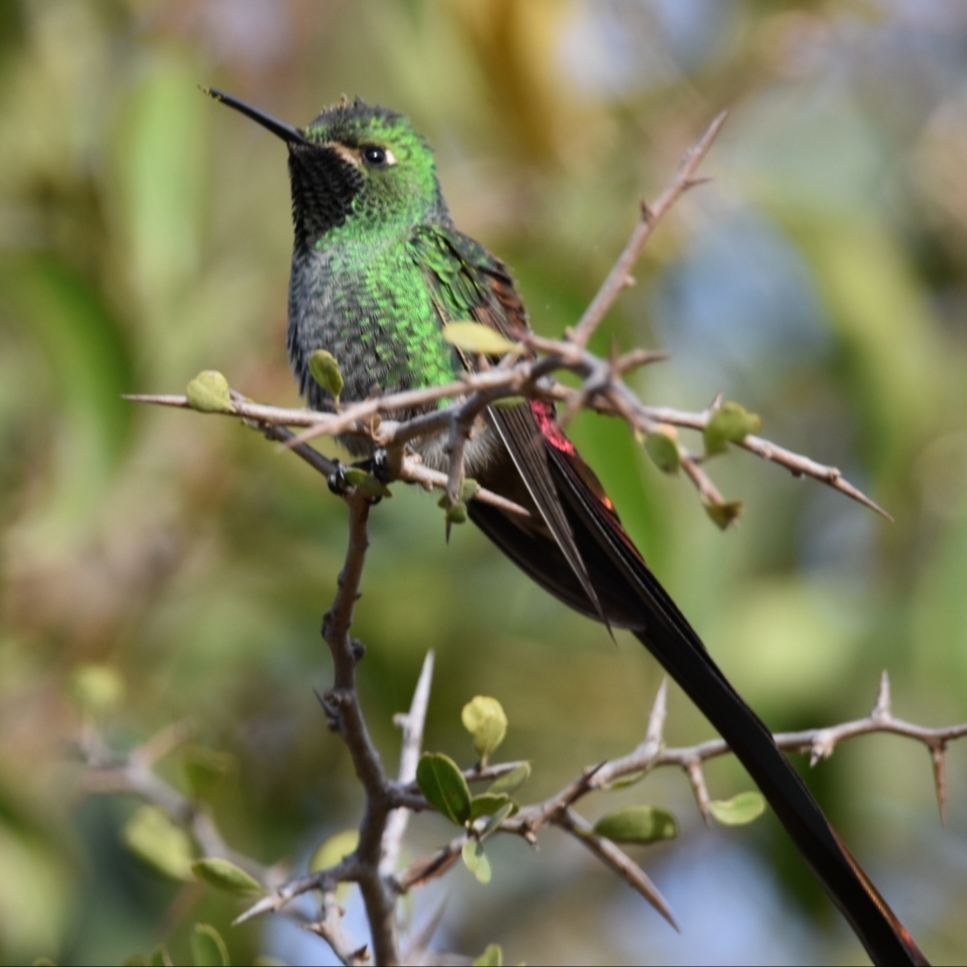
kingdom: Animalia
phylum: Chordata
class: Aves
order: Apodiformes
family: Trochilidae
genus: Sappho
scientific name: Sappho sparganurus
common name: Red-tailed comet
